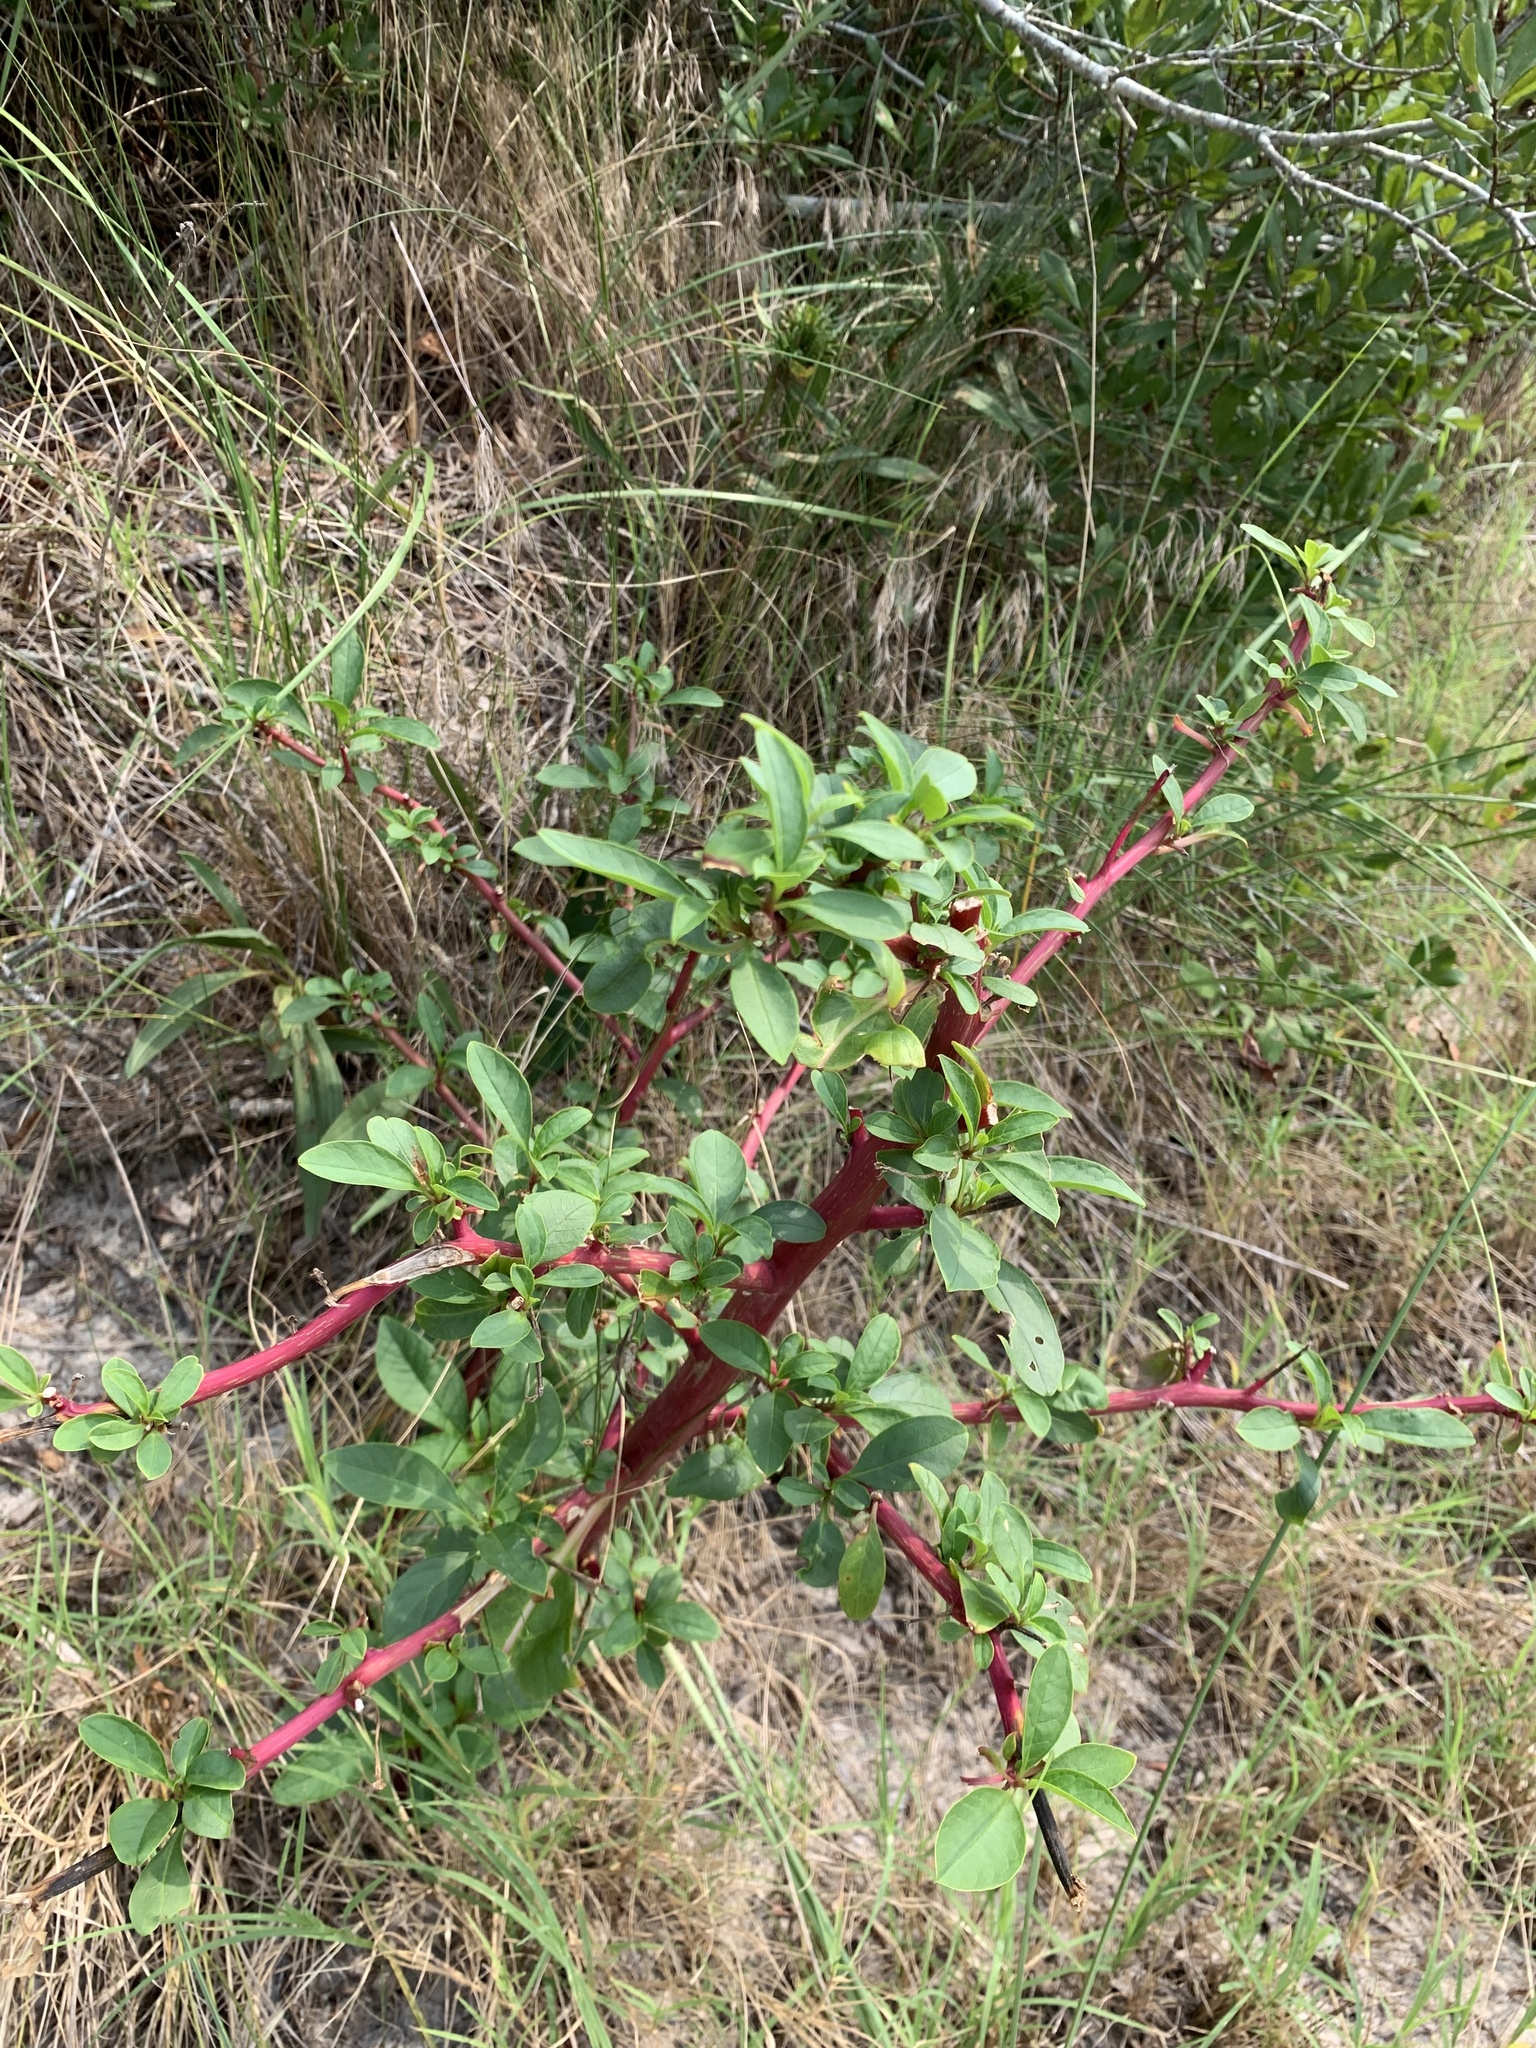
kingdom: Plantae
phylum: Tracheophyta
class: Magnoliopsida
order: Caryophyllales
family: Phytolaccaceae
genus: Phytolacca
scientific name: Phytolacca americana
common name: American pokeweed
